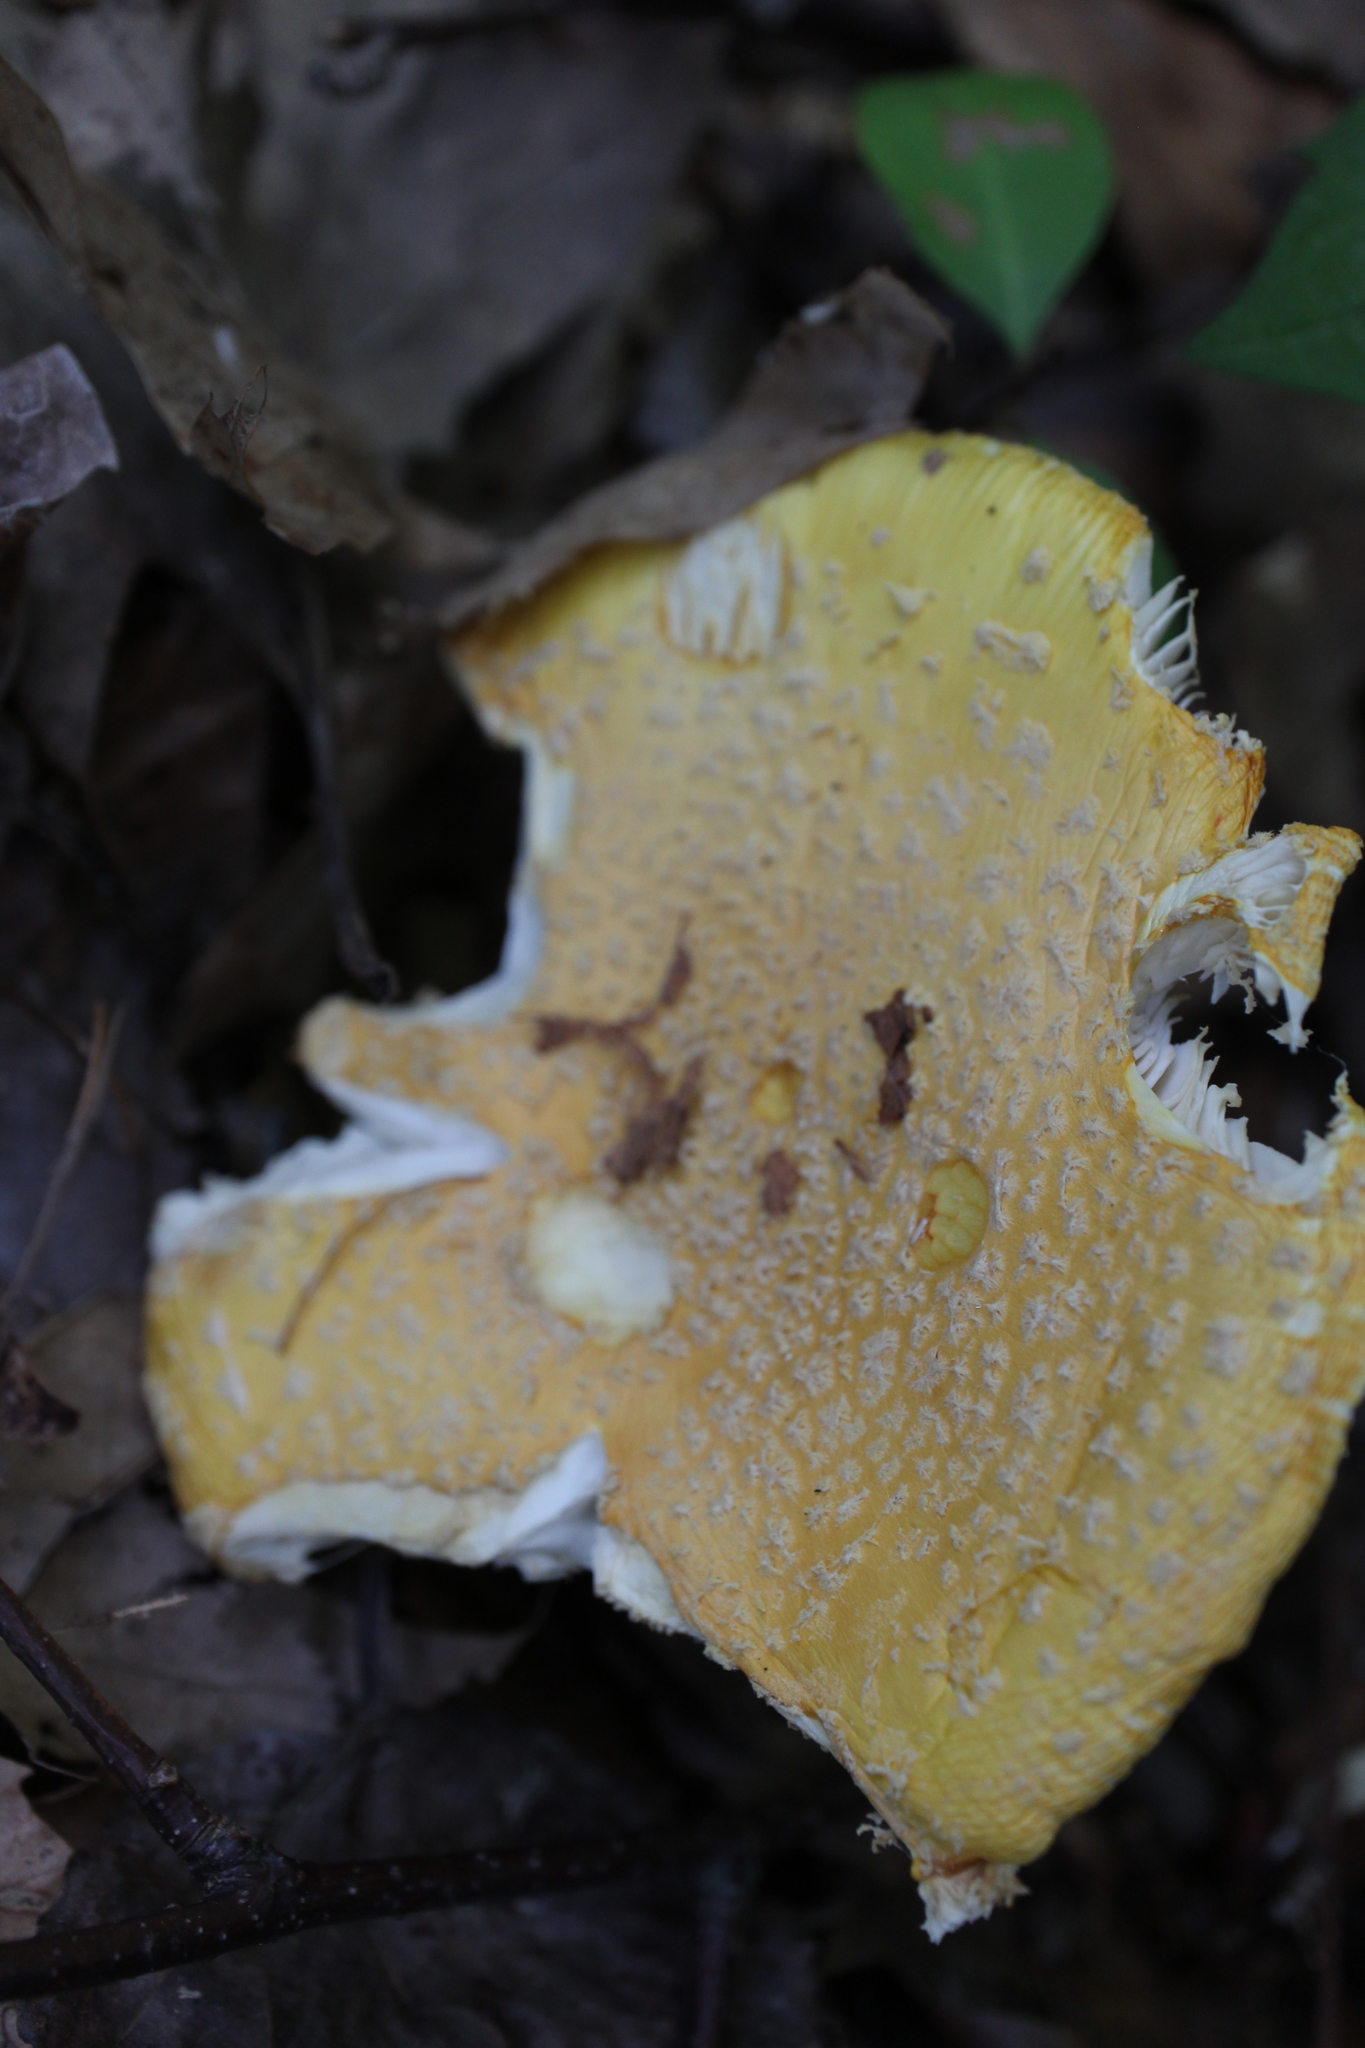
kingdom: Fungi
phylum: Basidiomycota
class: Agaricomycetes
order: Agaricales
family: Amanitaceae
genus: Amanita
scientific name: Amanita muscaria
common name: Fly agaric
